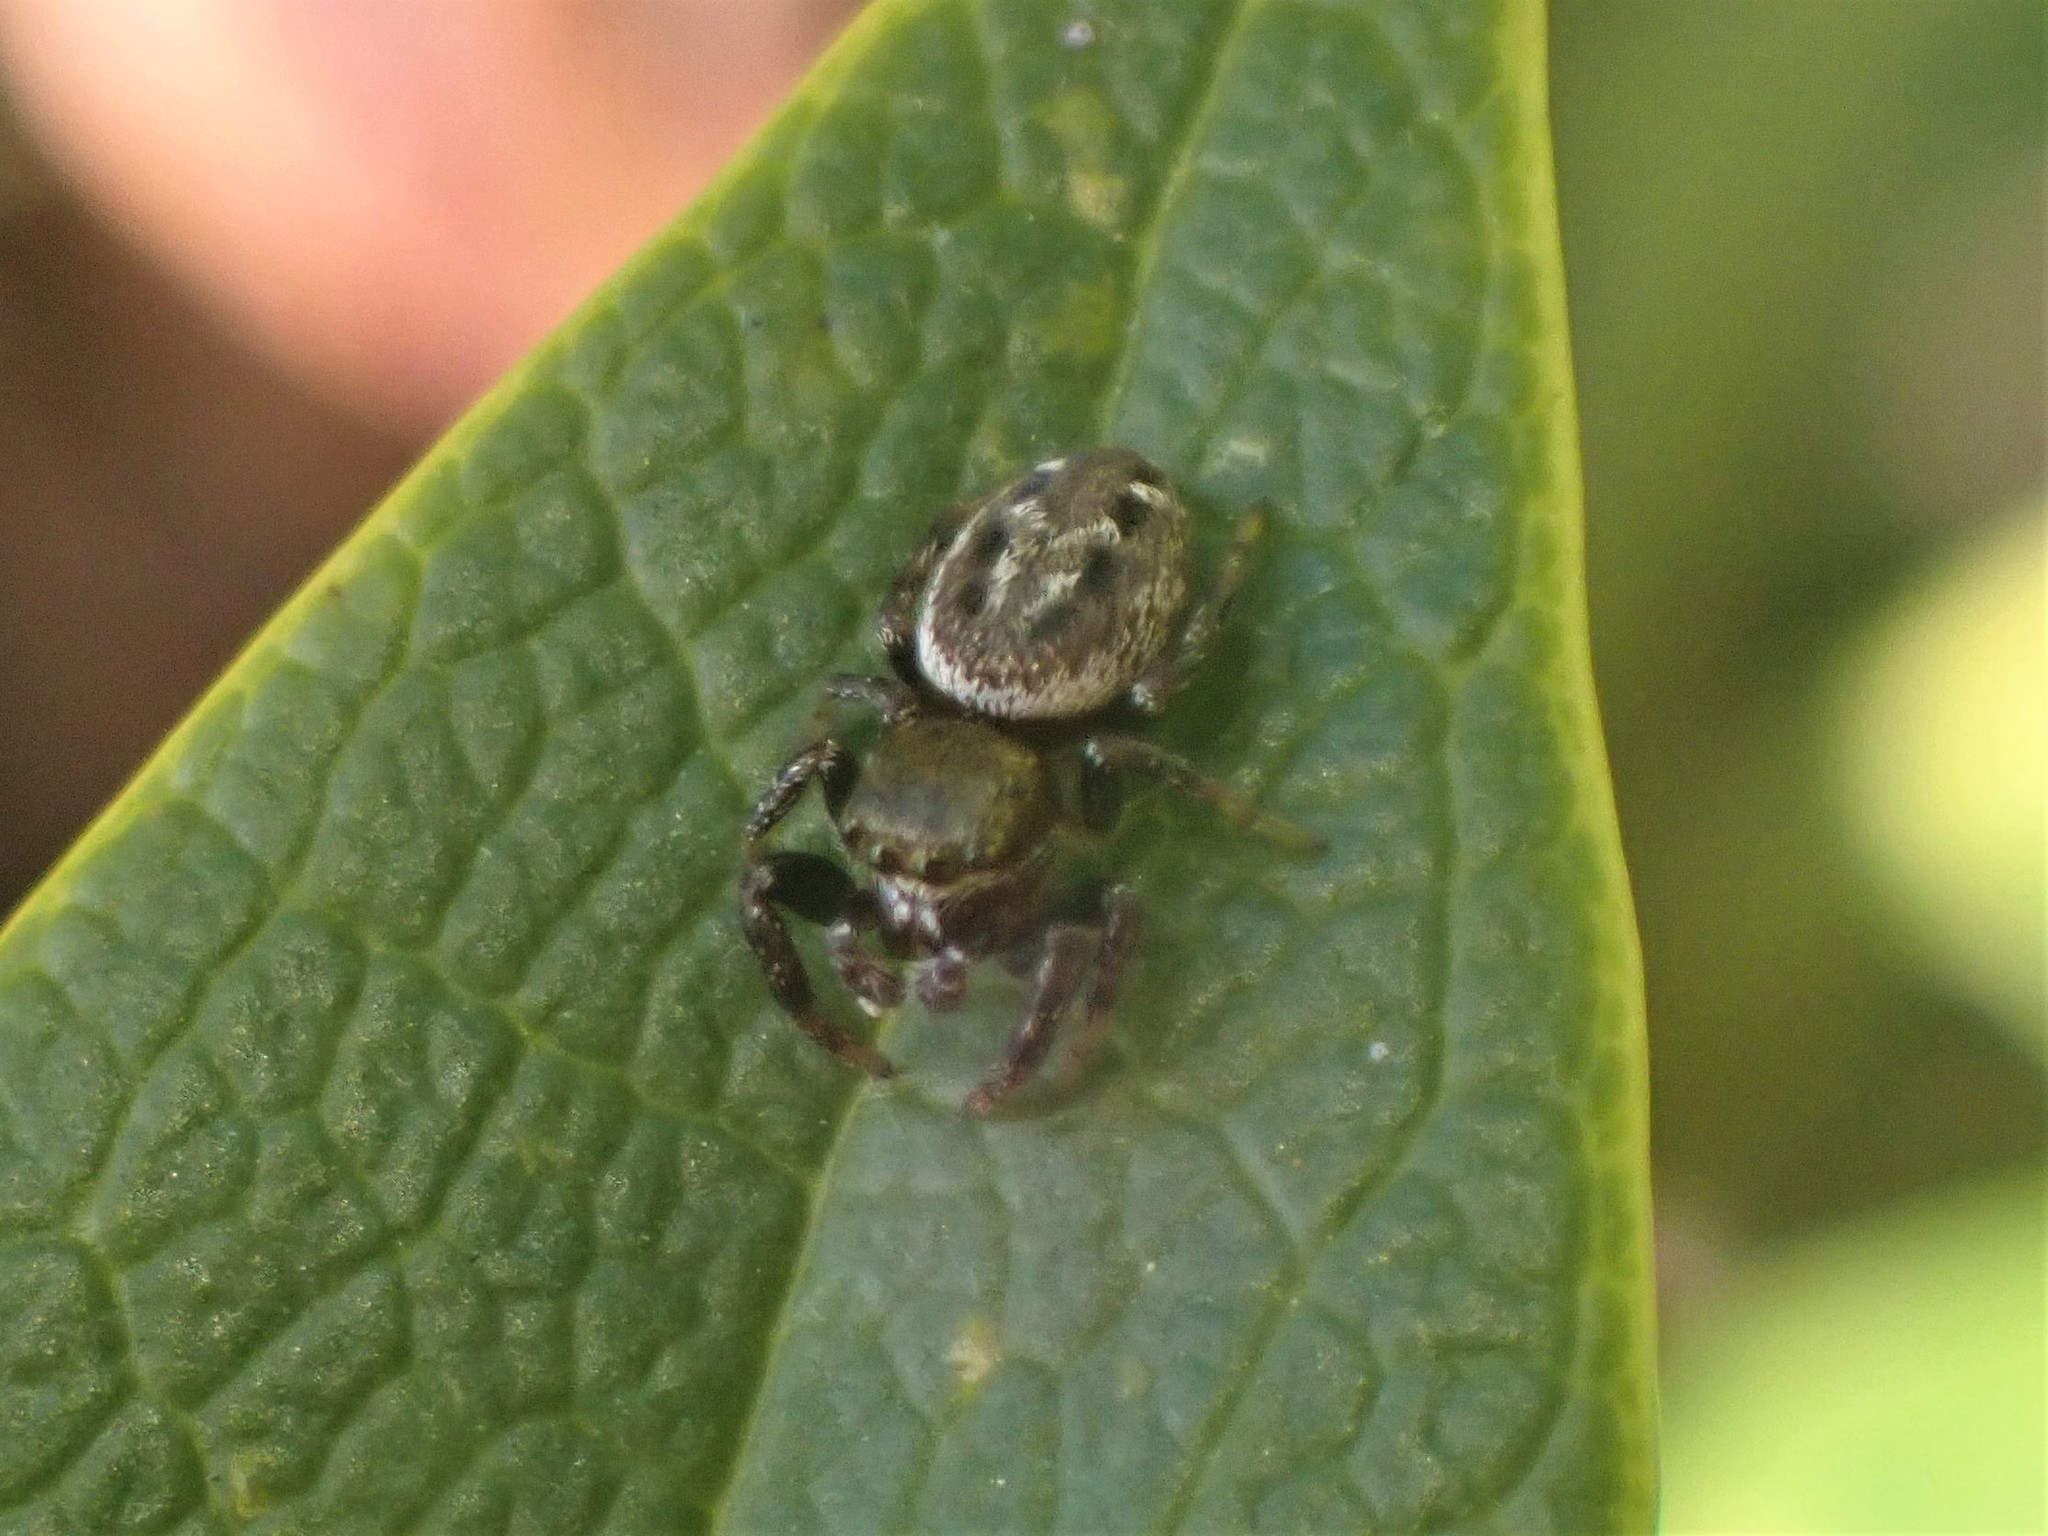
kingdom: Animalia
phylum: Arthropoda
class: Arachnida
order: Araneae
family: Salticidae
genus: Metaphidippus
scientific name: Metaphidippus manni
